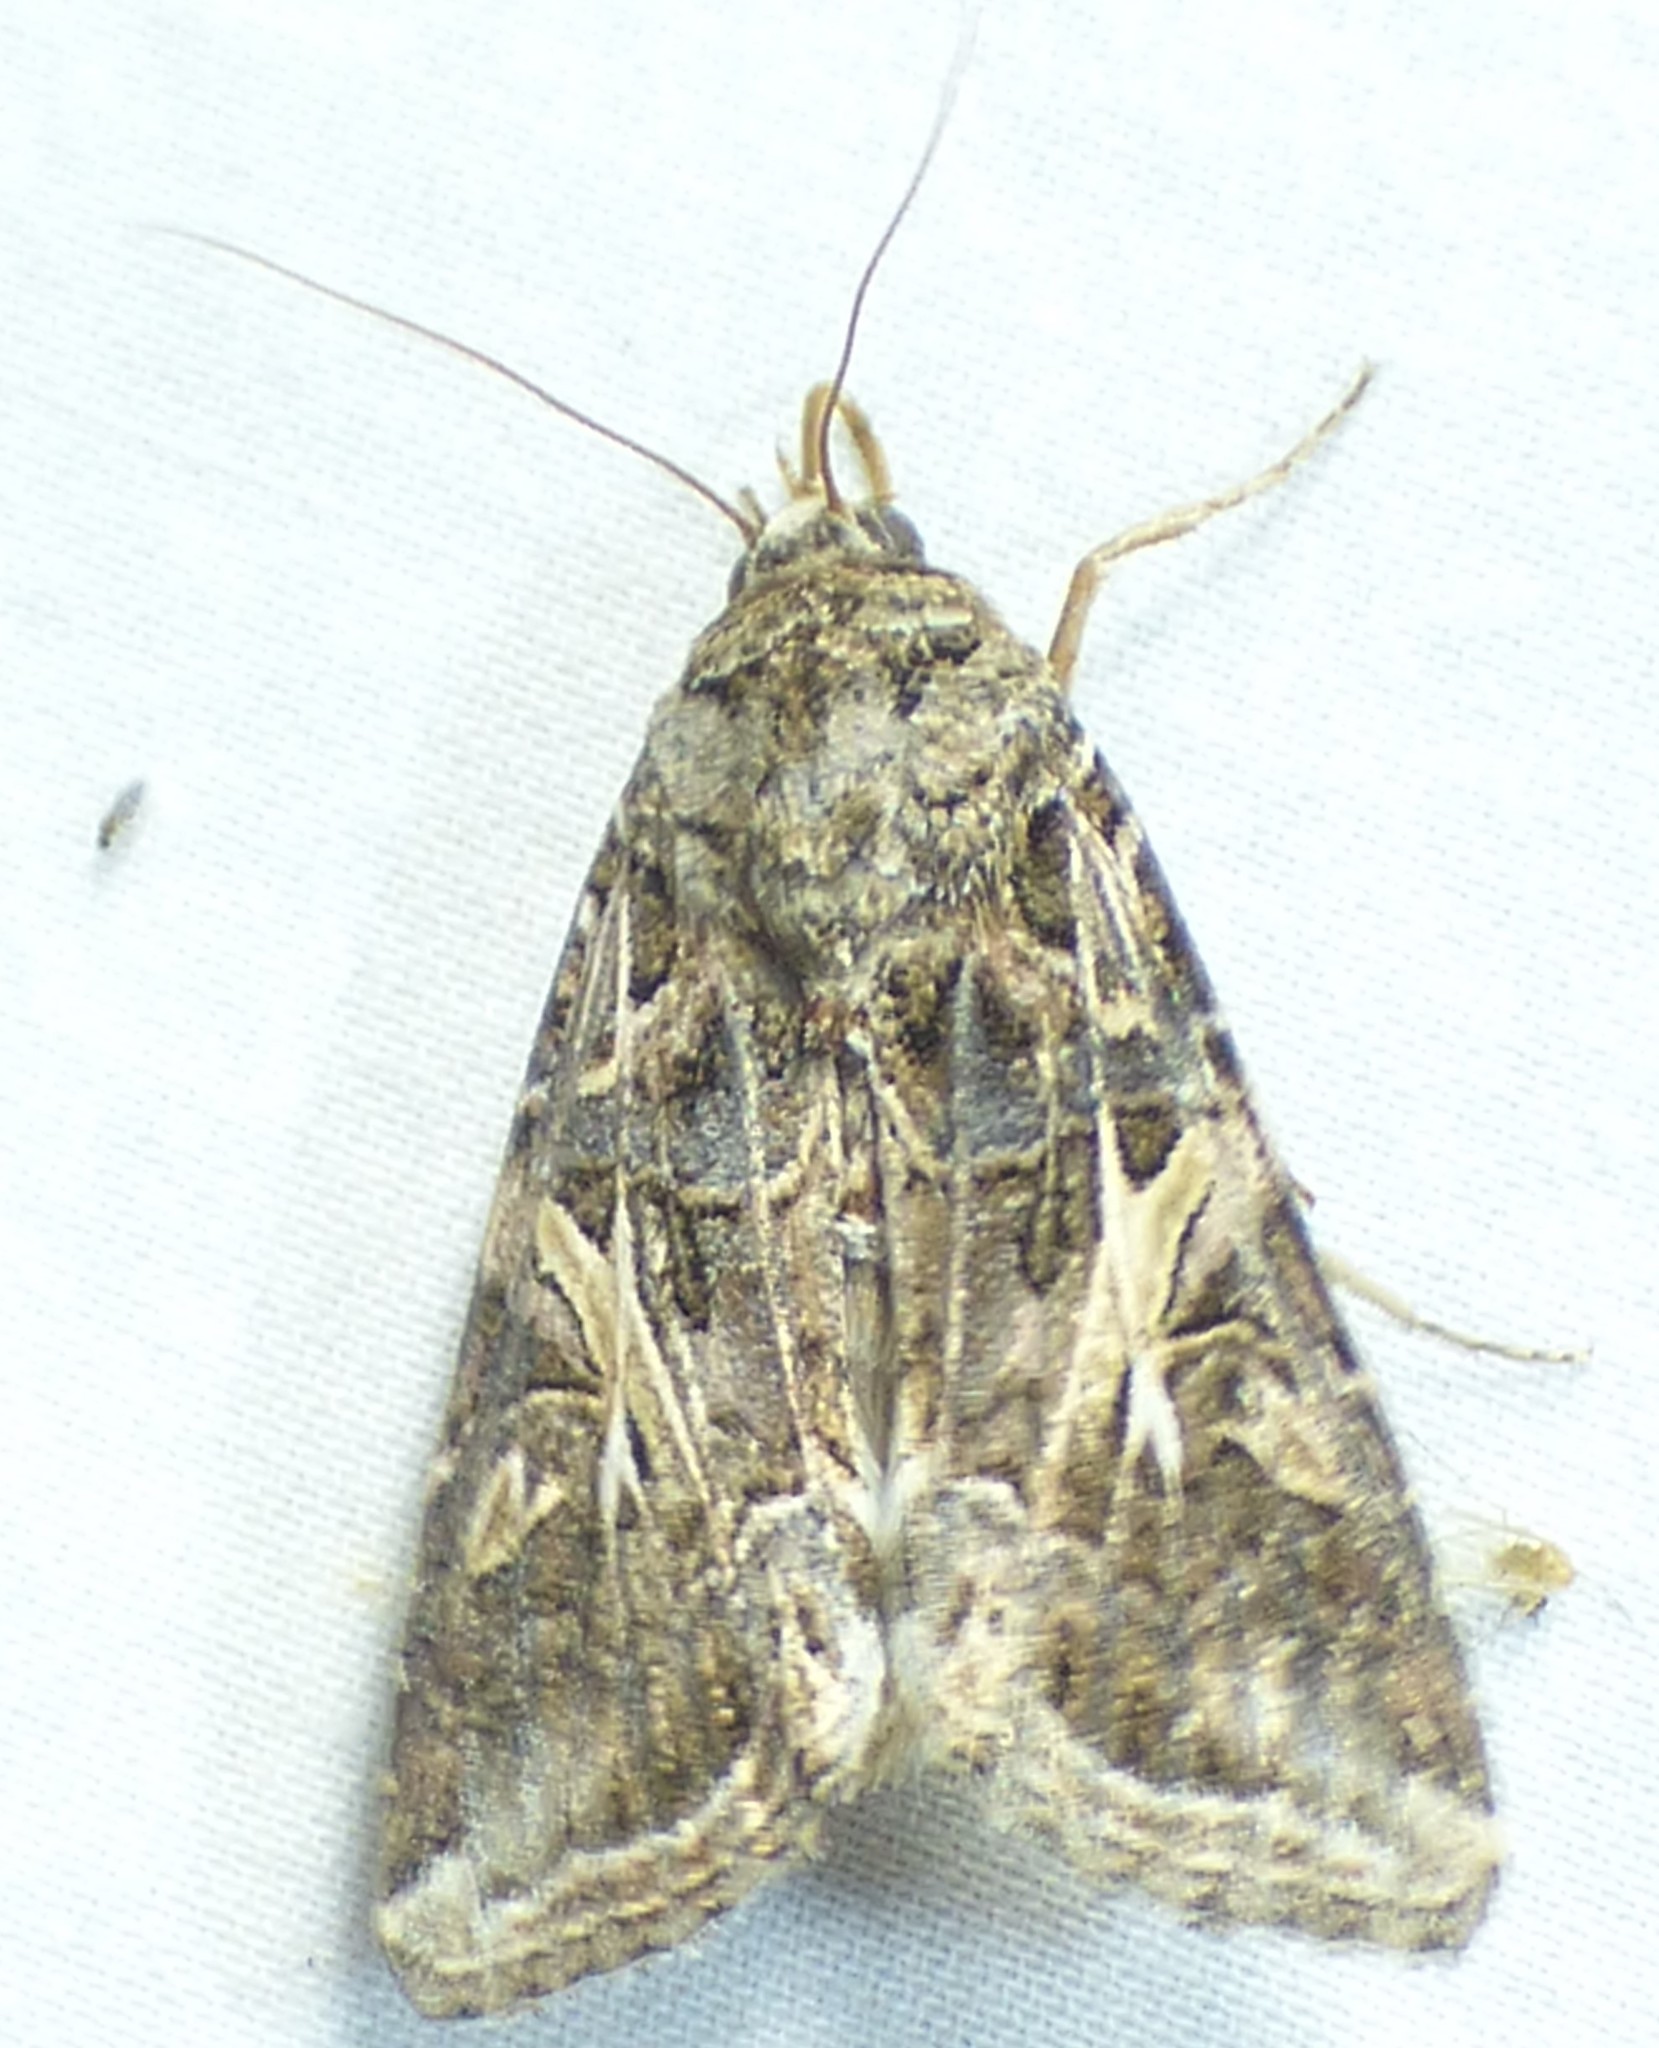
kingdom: Animalia
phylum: Arthropoda
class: Insecta
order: Lepidoptera
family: Noctuidae
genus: Spodoptera
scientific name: Spodoptera ornithogalli
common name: Yellow-striped armyworm
